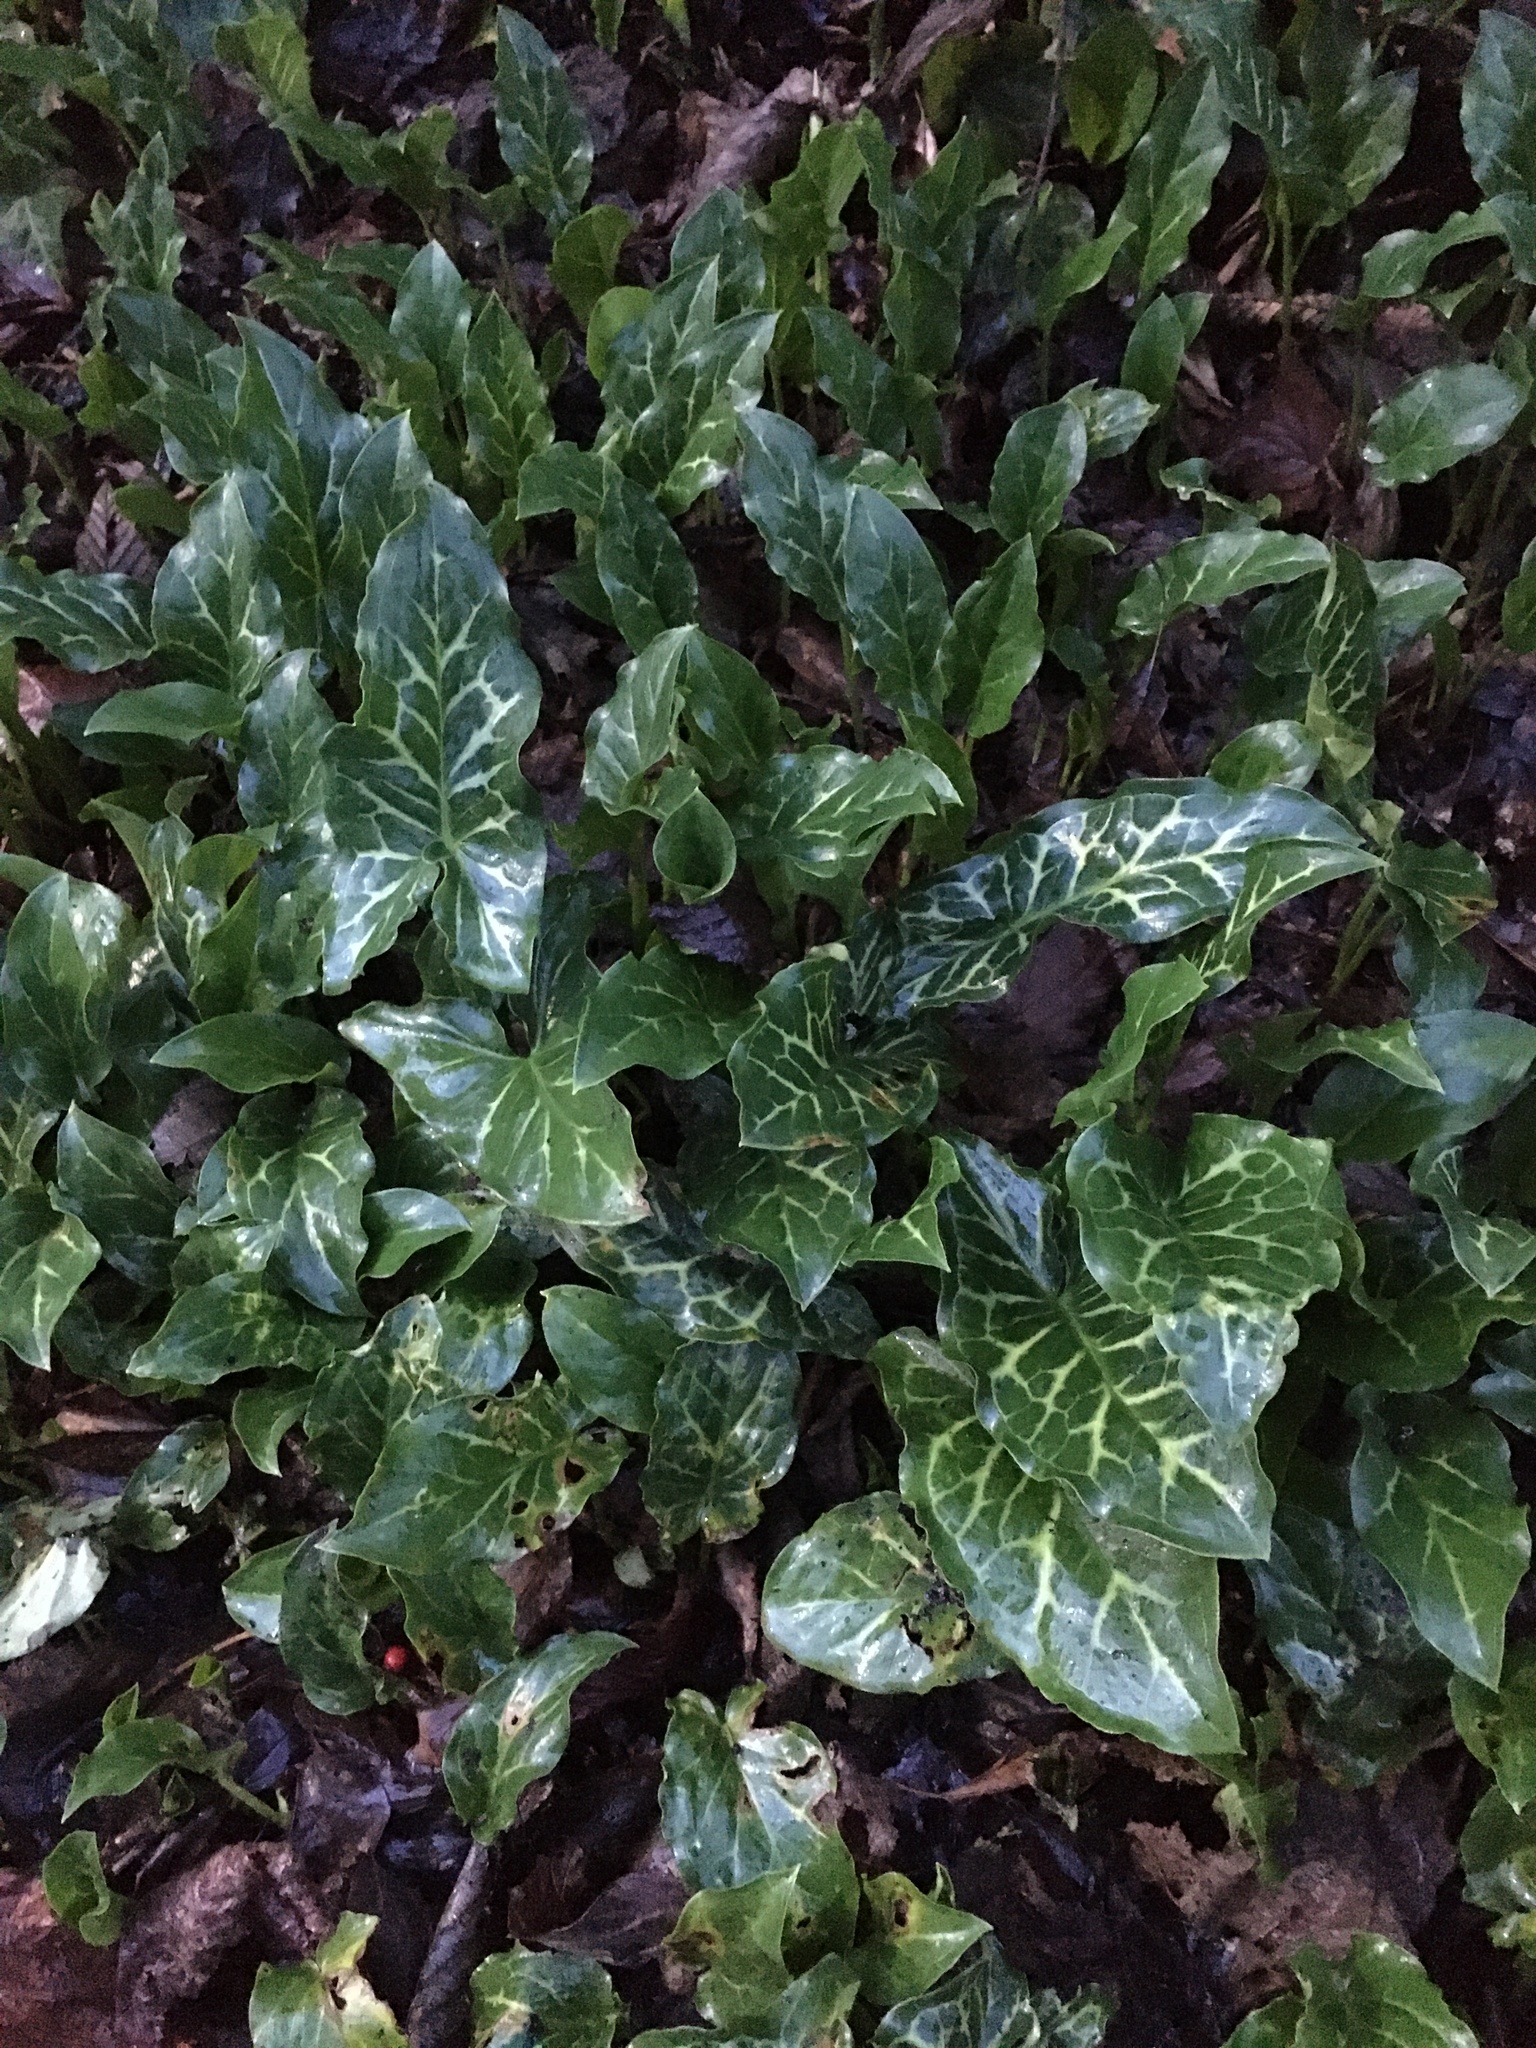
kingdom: Plantae
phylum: Tracheophyta
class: Liliopsida
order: Alismatales
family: Araceae
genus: Arum
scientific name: Arum italicum
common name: Italian lords-and-ladies
